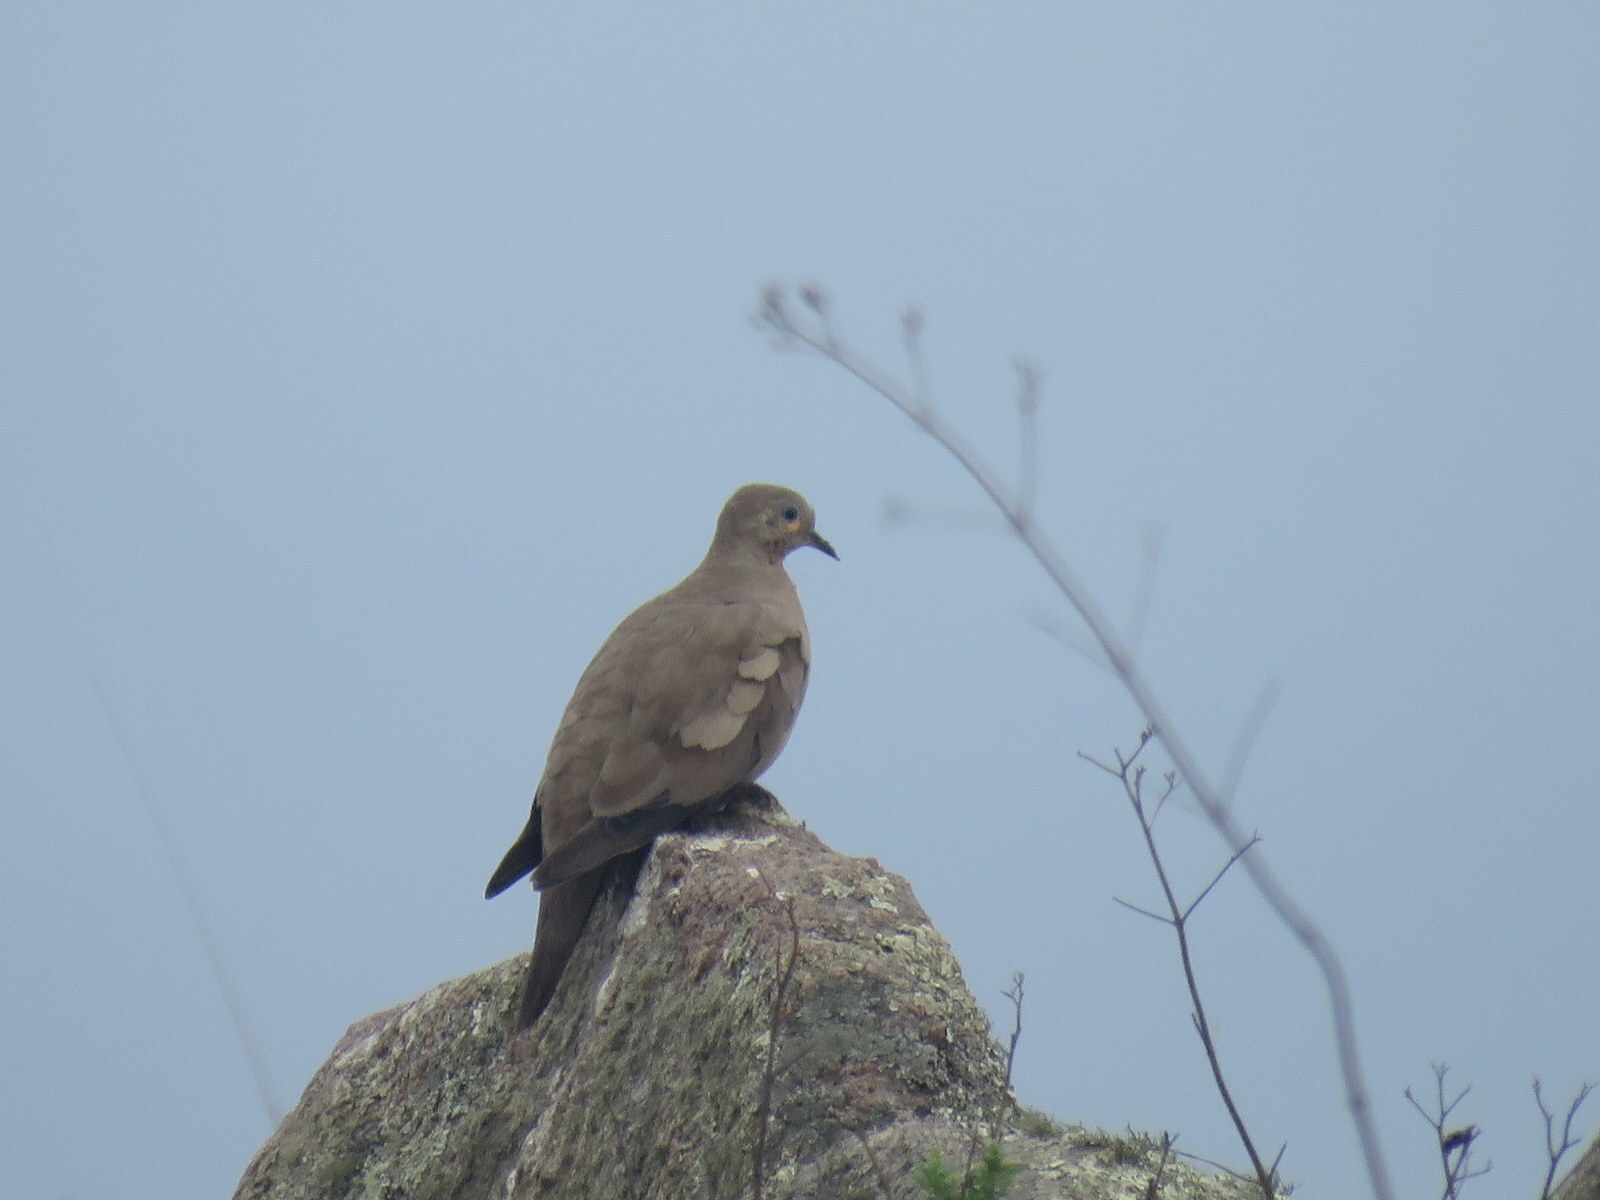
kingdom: Animalia
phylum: Chordata
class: Aves
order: Columbiformes
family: Columbidae
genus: Metriopelia
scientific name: Metriopelia melanoptera
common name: Black-winged ground dove
